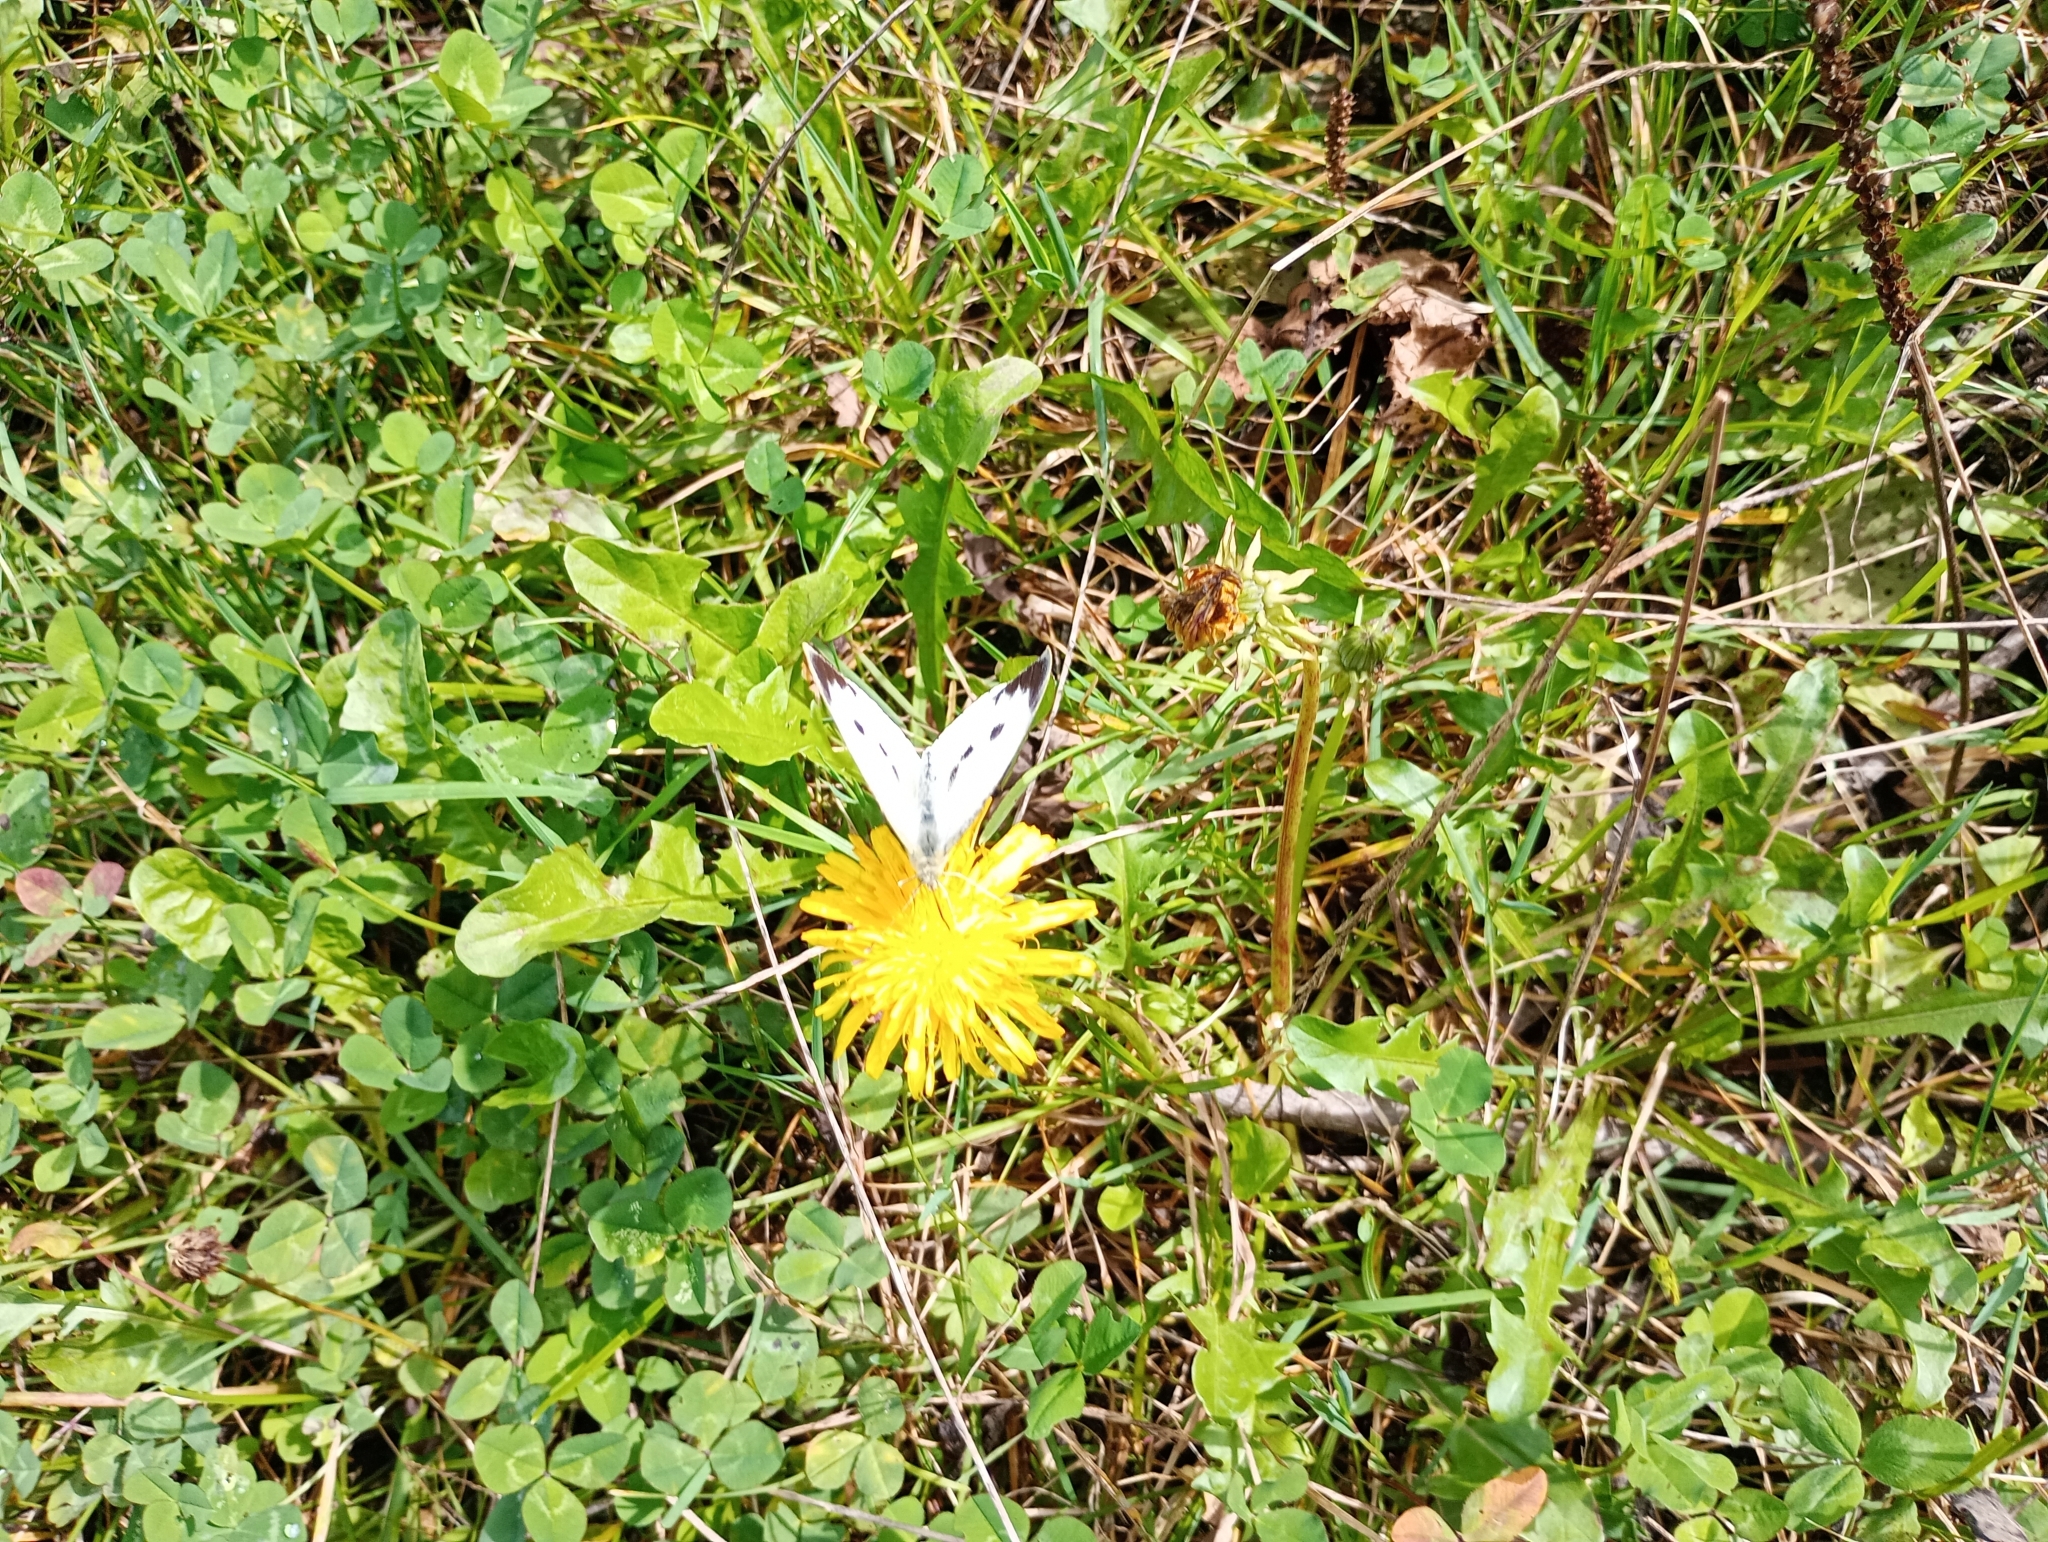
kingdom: Animalia
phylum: Arthropoda
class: Insecta
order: Lepidoptera
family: Pieridae
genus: Pieris
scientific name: Pieris brassicae
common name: Large white
